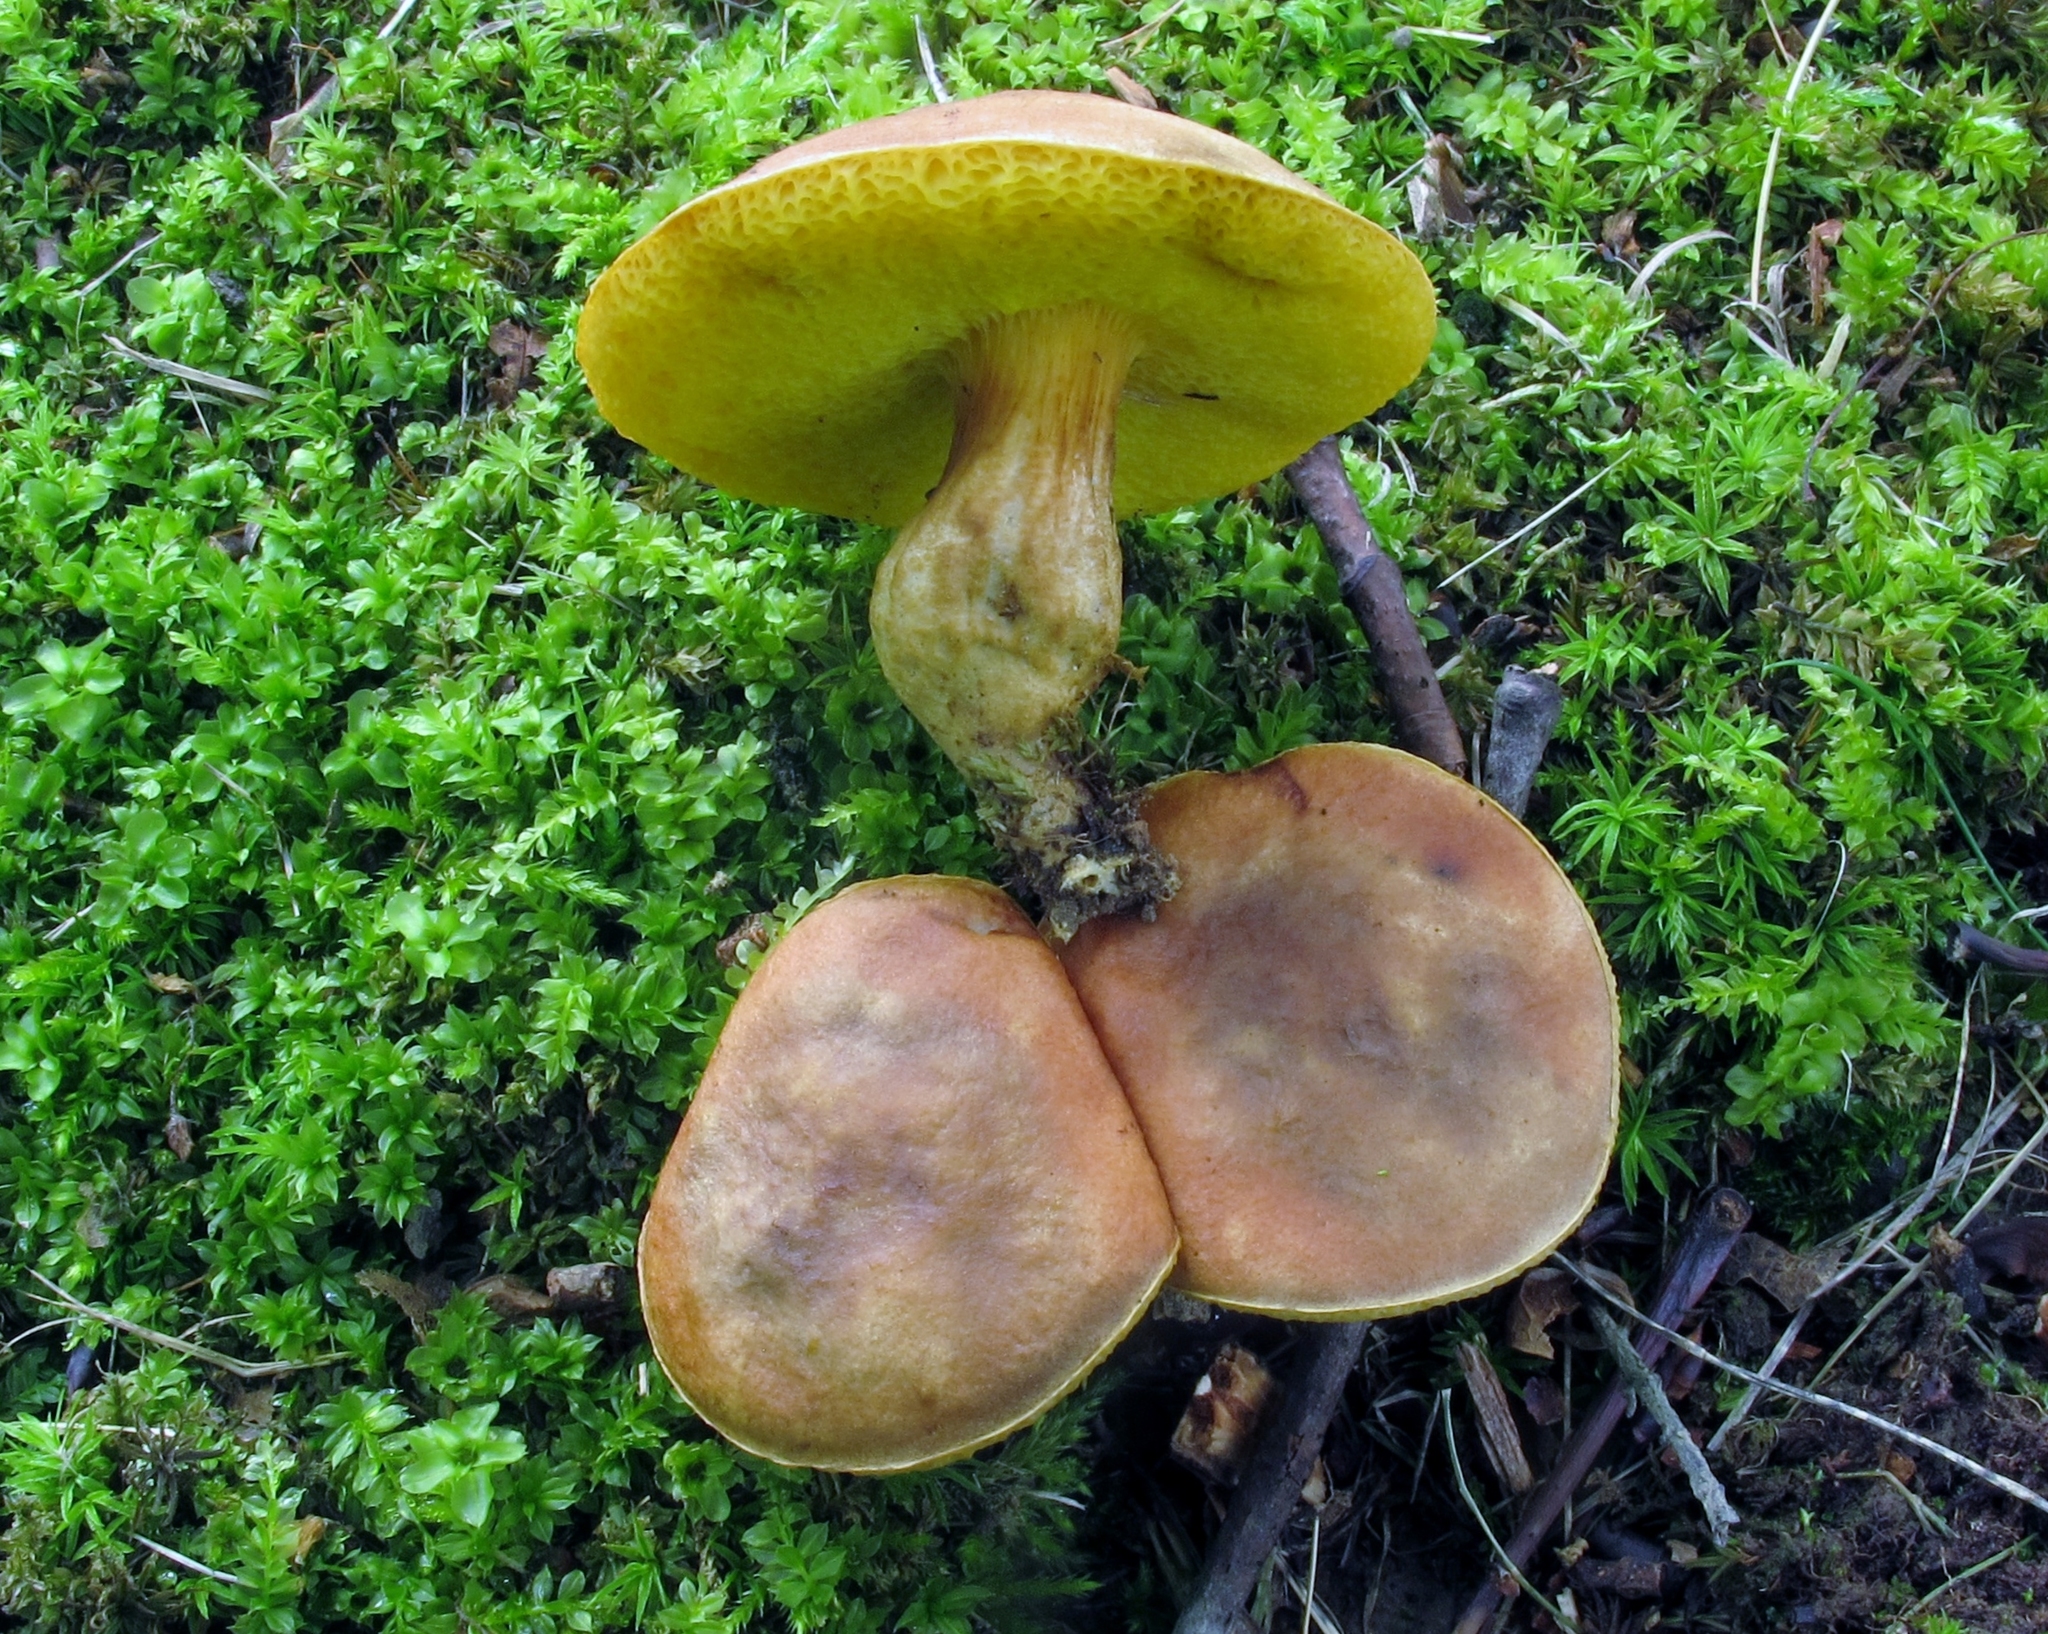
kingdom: Fungi
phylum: Basidiomycota
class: Agaricomycetes
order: Boletales
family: Boletaceae
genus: Aureoboletus
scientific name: Aureoboletus innixus
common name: Clustered brown bolete
